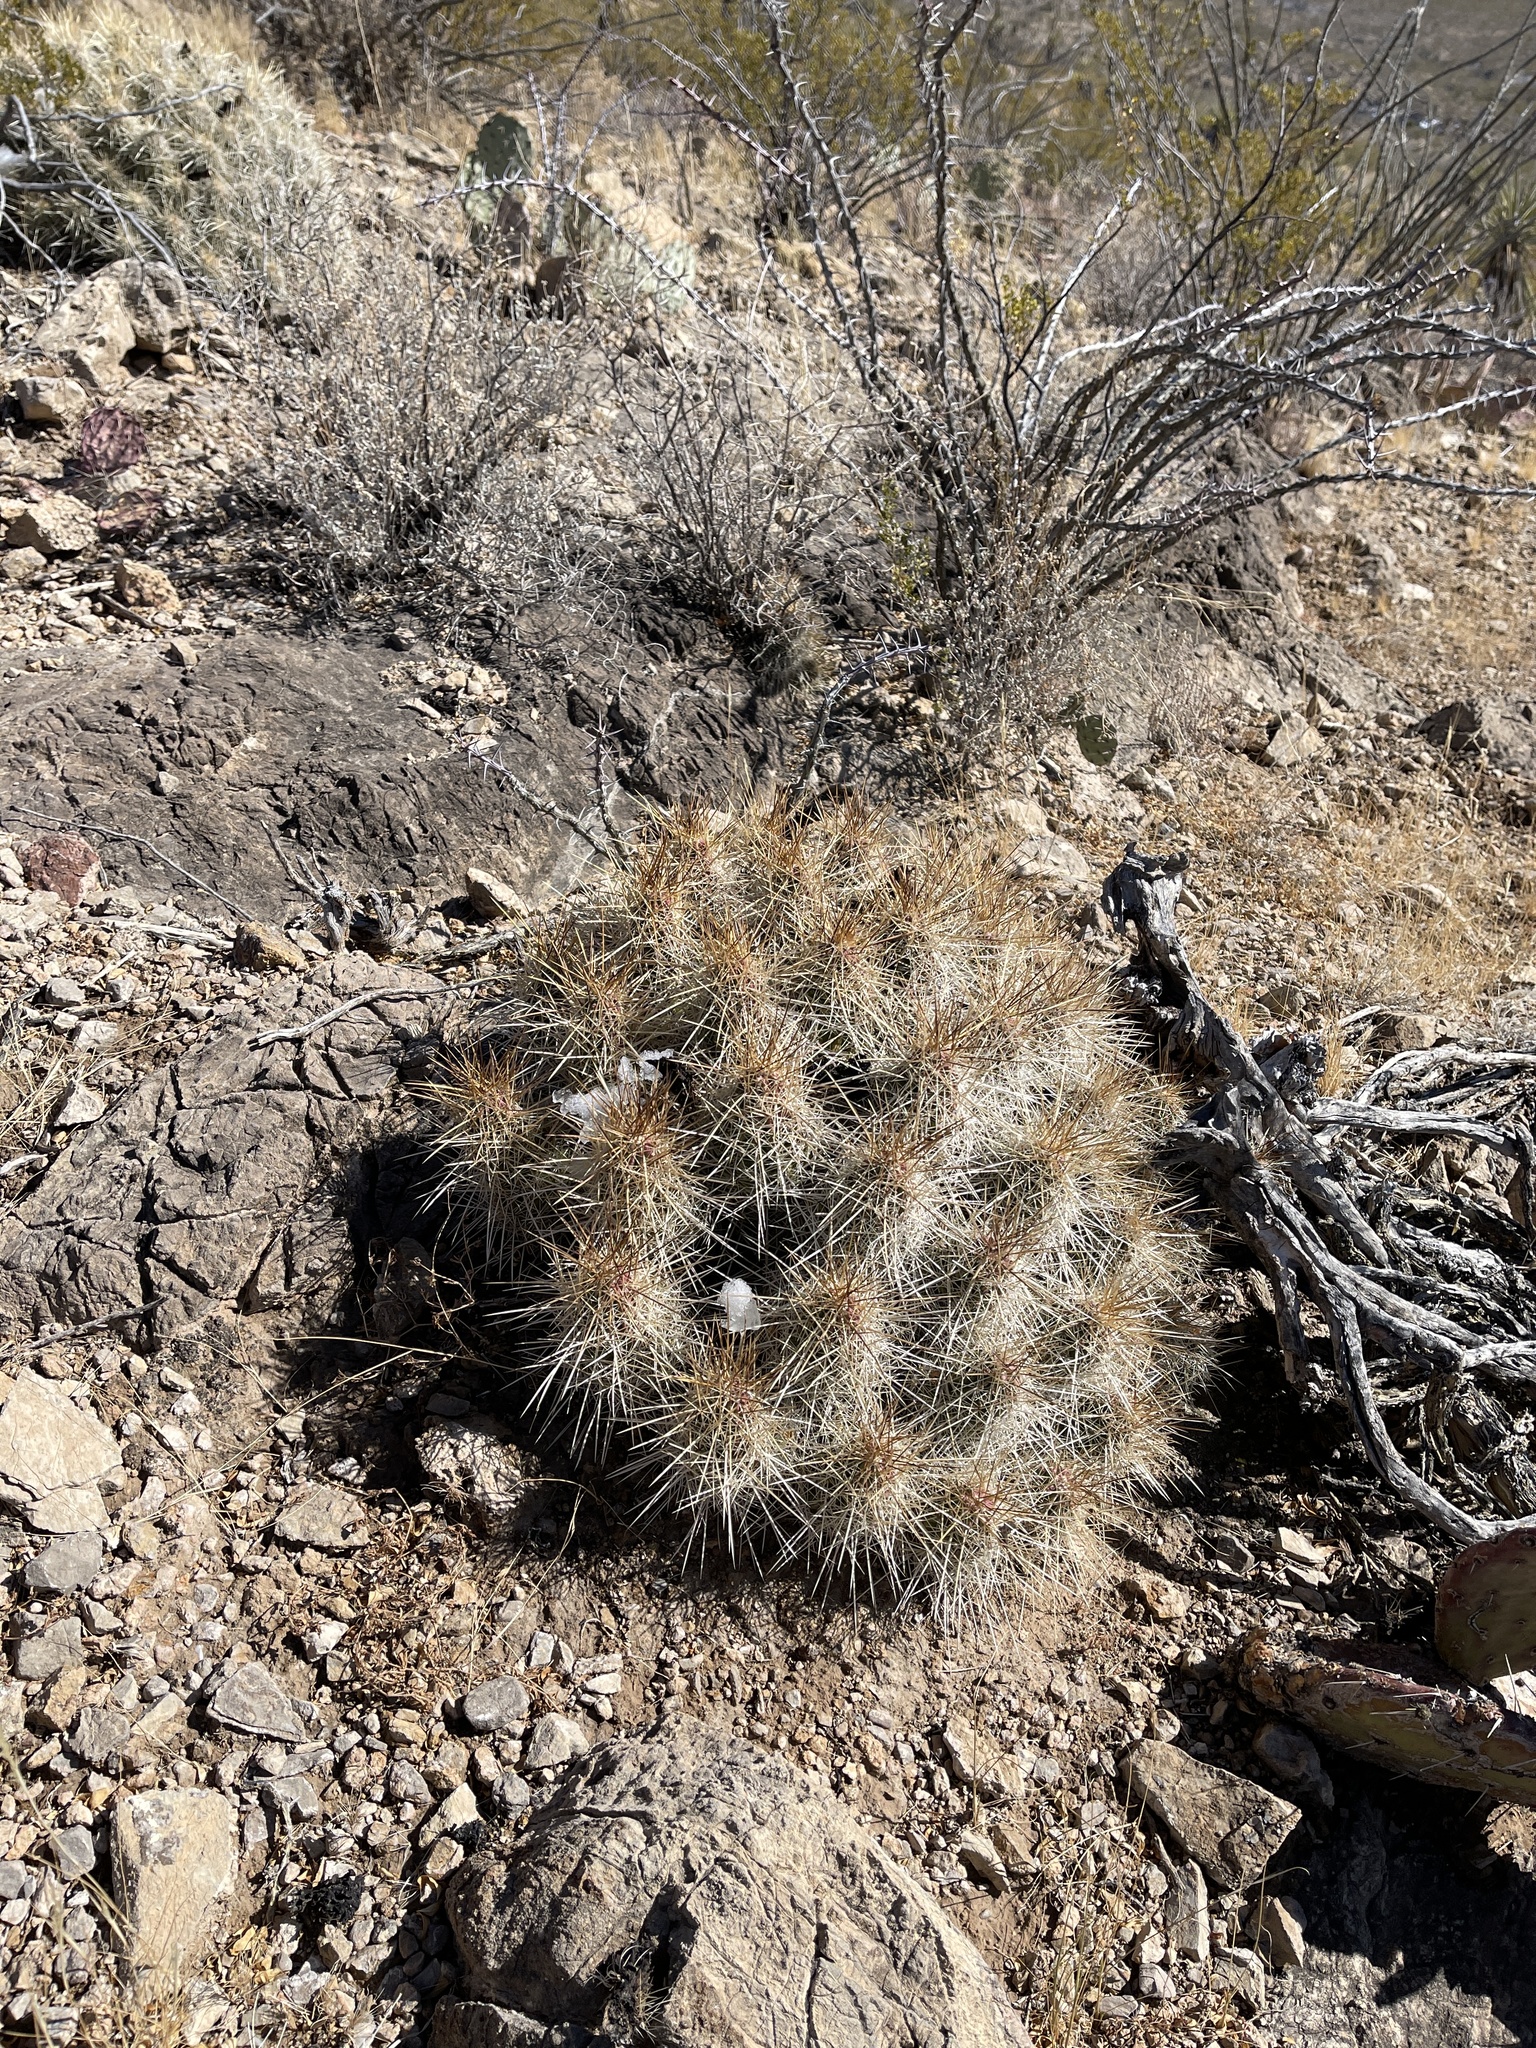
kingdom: Plantae
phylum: Tracheophyta
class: Magnoliopsida
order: Caryophyllales
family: Cactaceae
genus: Echinocereus
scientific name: Echinocereus stramineus
